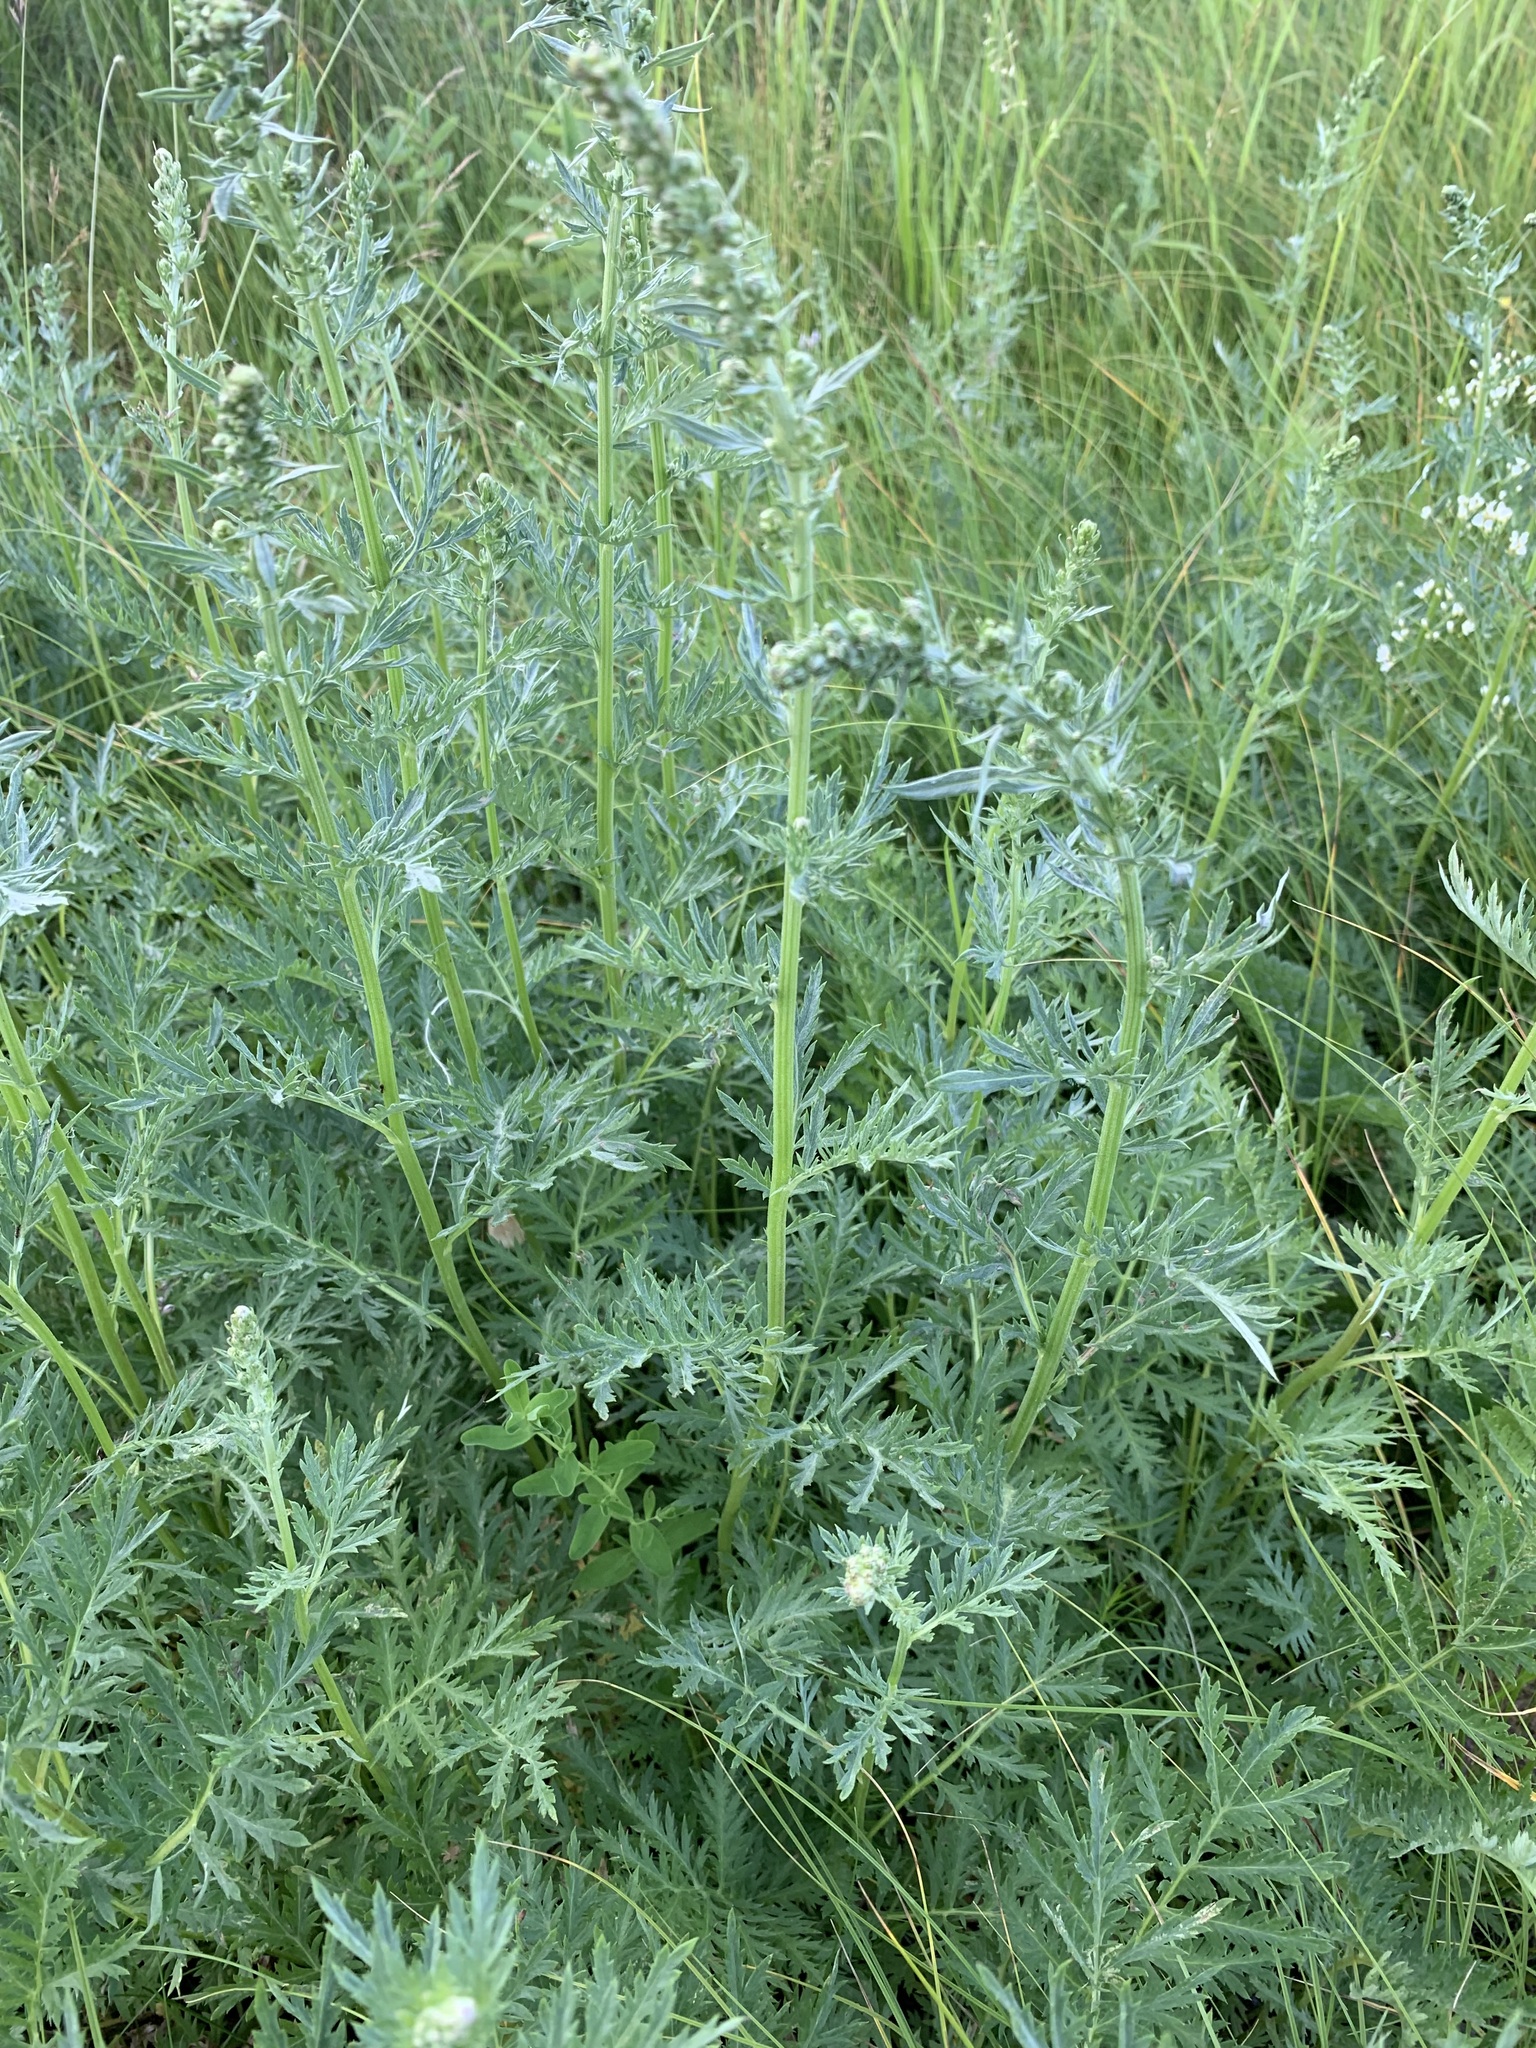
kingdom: Plantae
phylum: Tracheophyta
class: Magnoliopsida
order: Asterales
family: Asteraceae
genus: Artemisia
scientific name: Artemisia tanacetifolia
